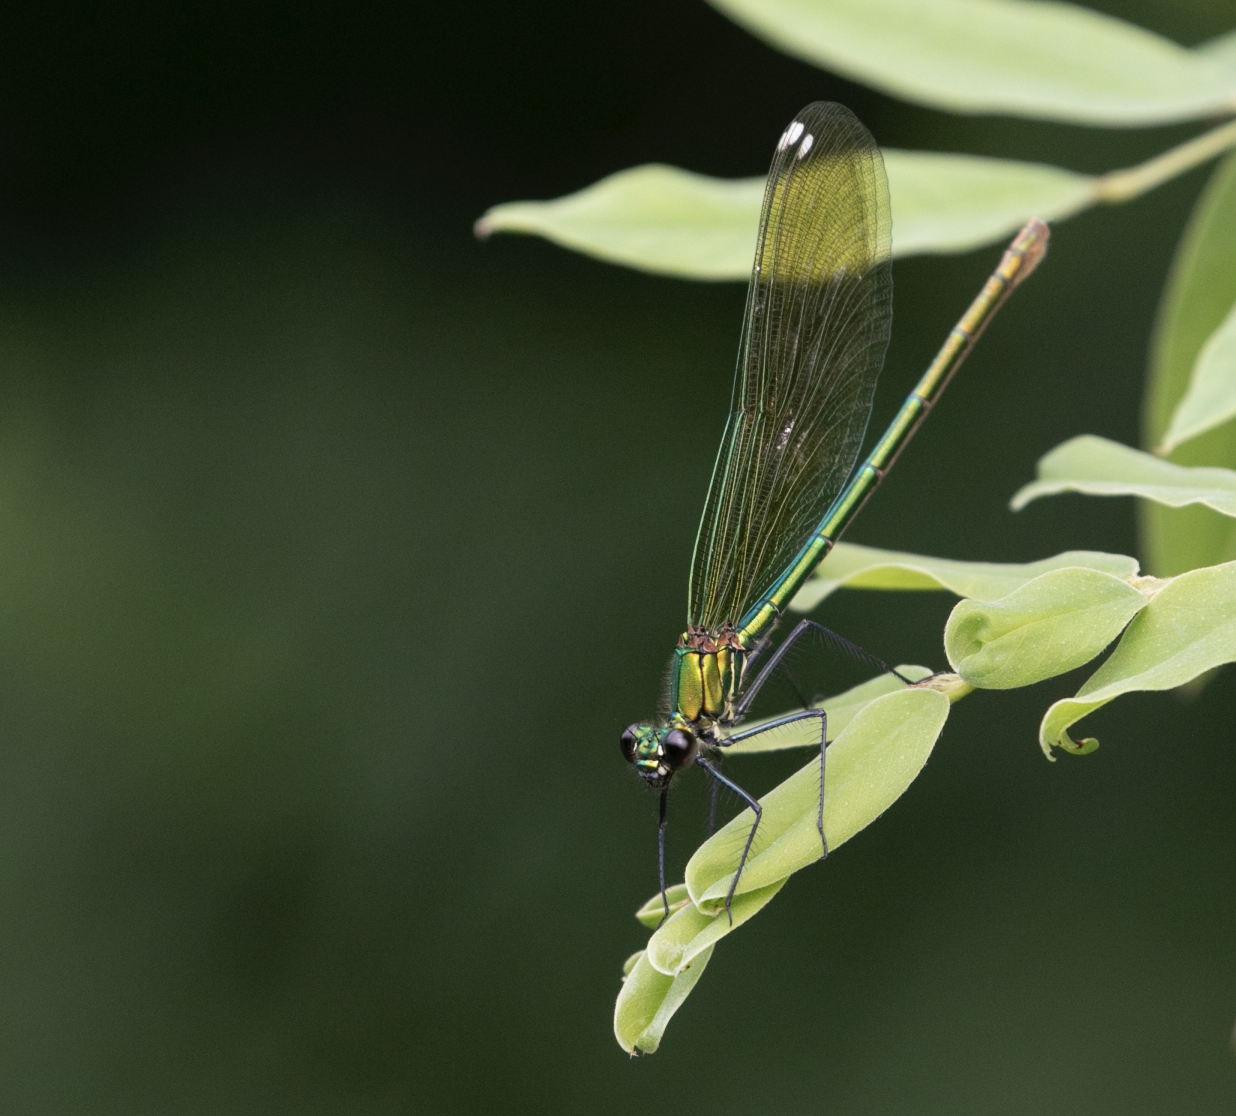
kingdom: Animalia
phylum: Arthropoda
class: Insecta
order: Odonata
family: Calopterygidae
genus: Calopteryx
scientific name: Calopteryx splendens
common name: Banded demoiselle
